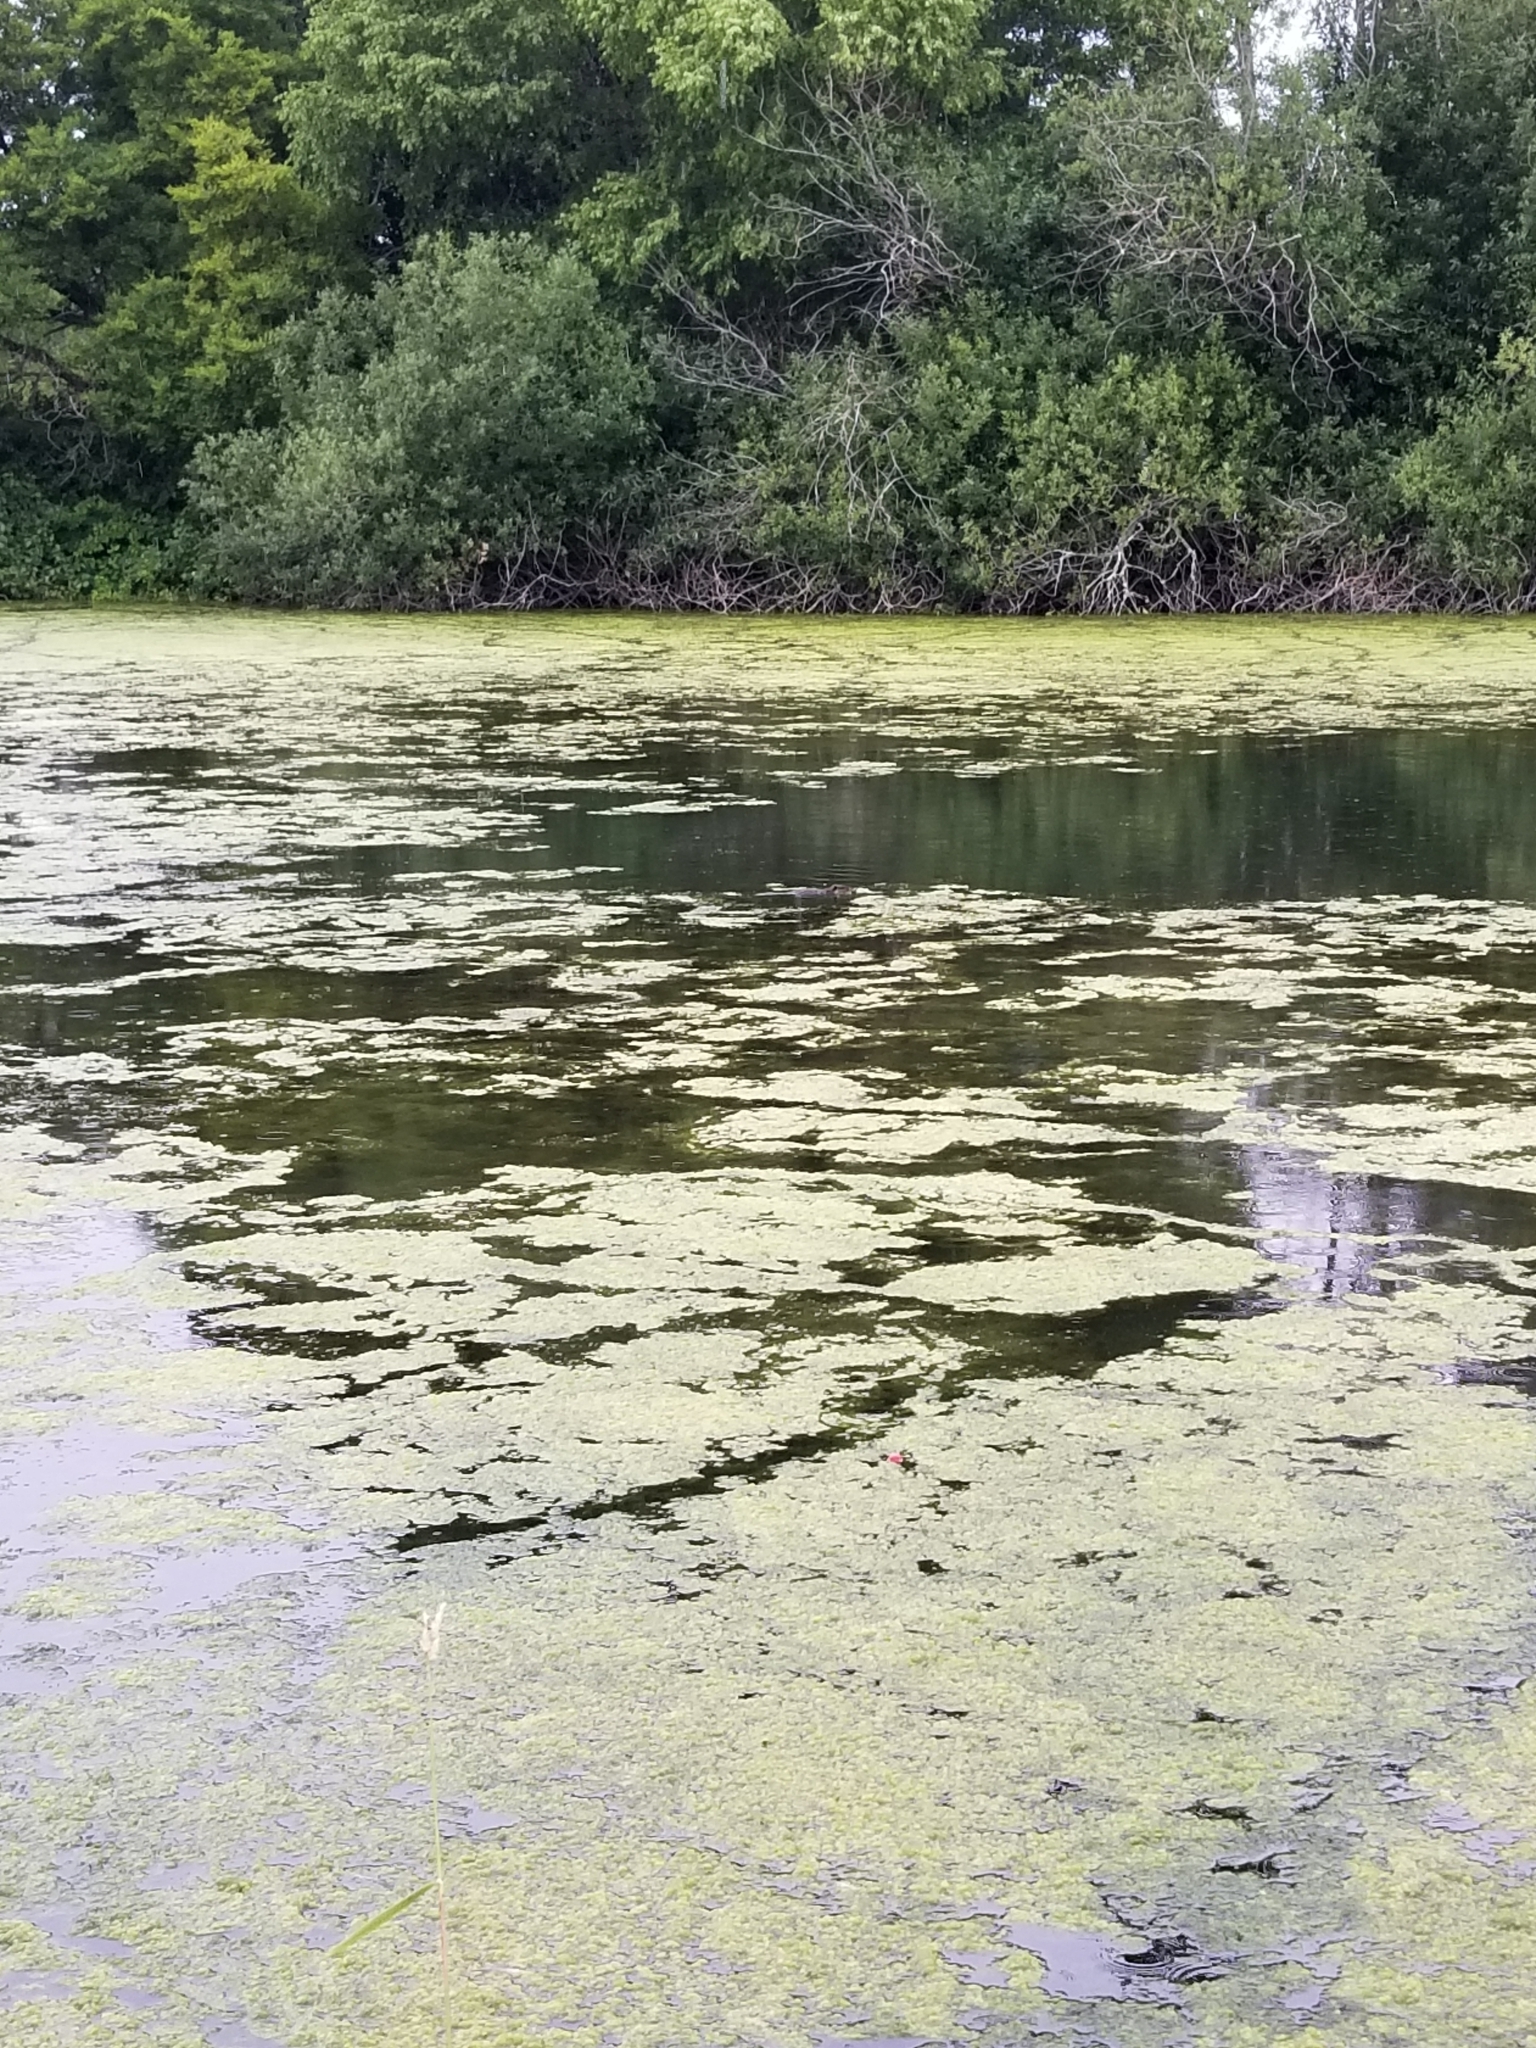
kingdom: Animalia
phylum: Chordata
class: Mammalia
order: Rodentia
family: Cricetidae
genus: Ondatra
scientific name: Ondatra zibethicus
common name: Muskrat
